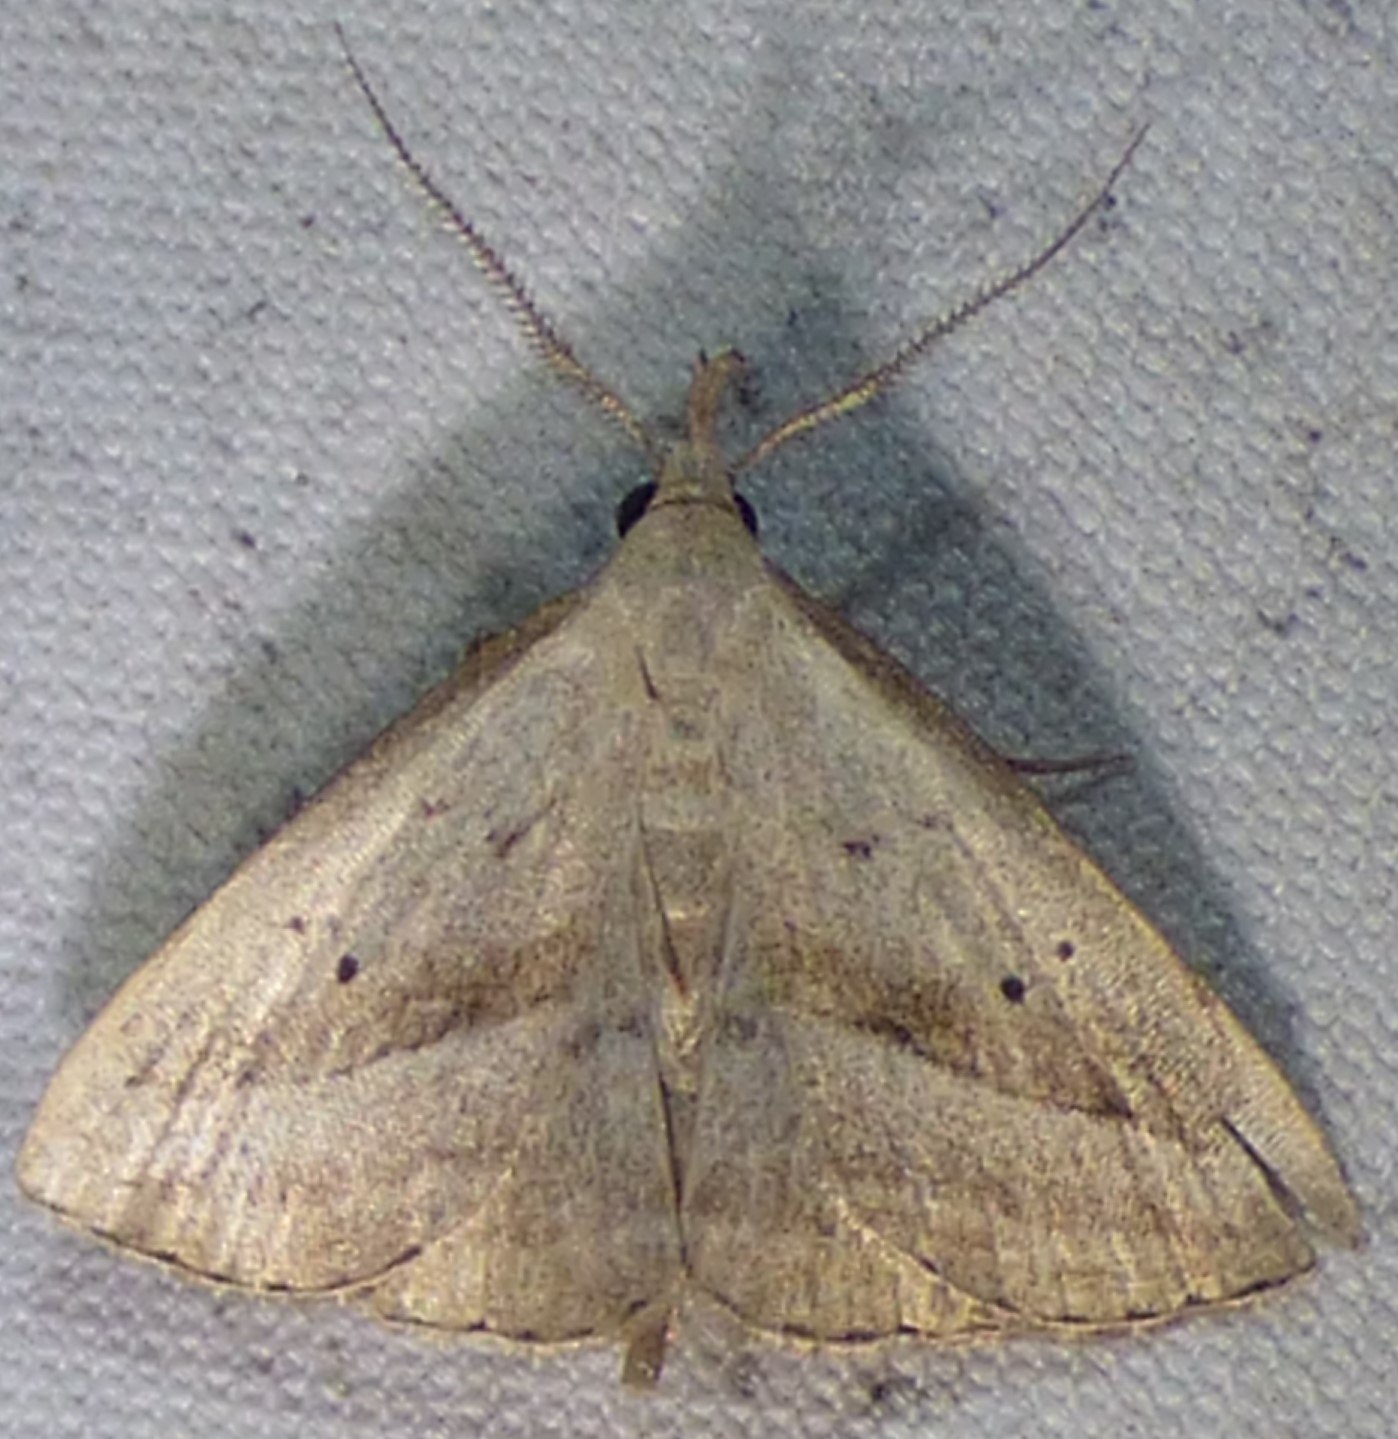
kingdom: Animalia
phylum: Arthropoda
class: Insecta
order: Lepidoptera
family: Erebidae
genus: Macrochilo
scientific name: Macrochilo hypocritalis
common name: Twin-dotted owlet
